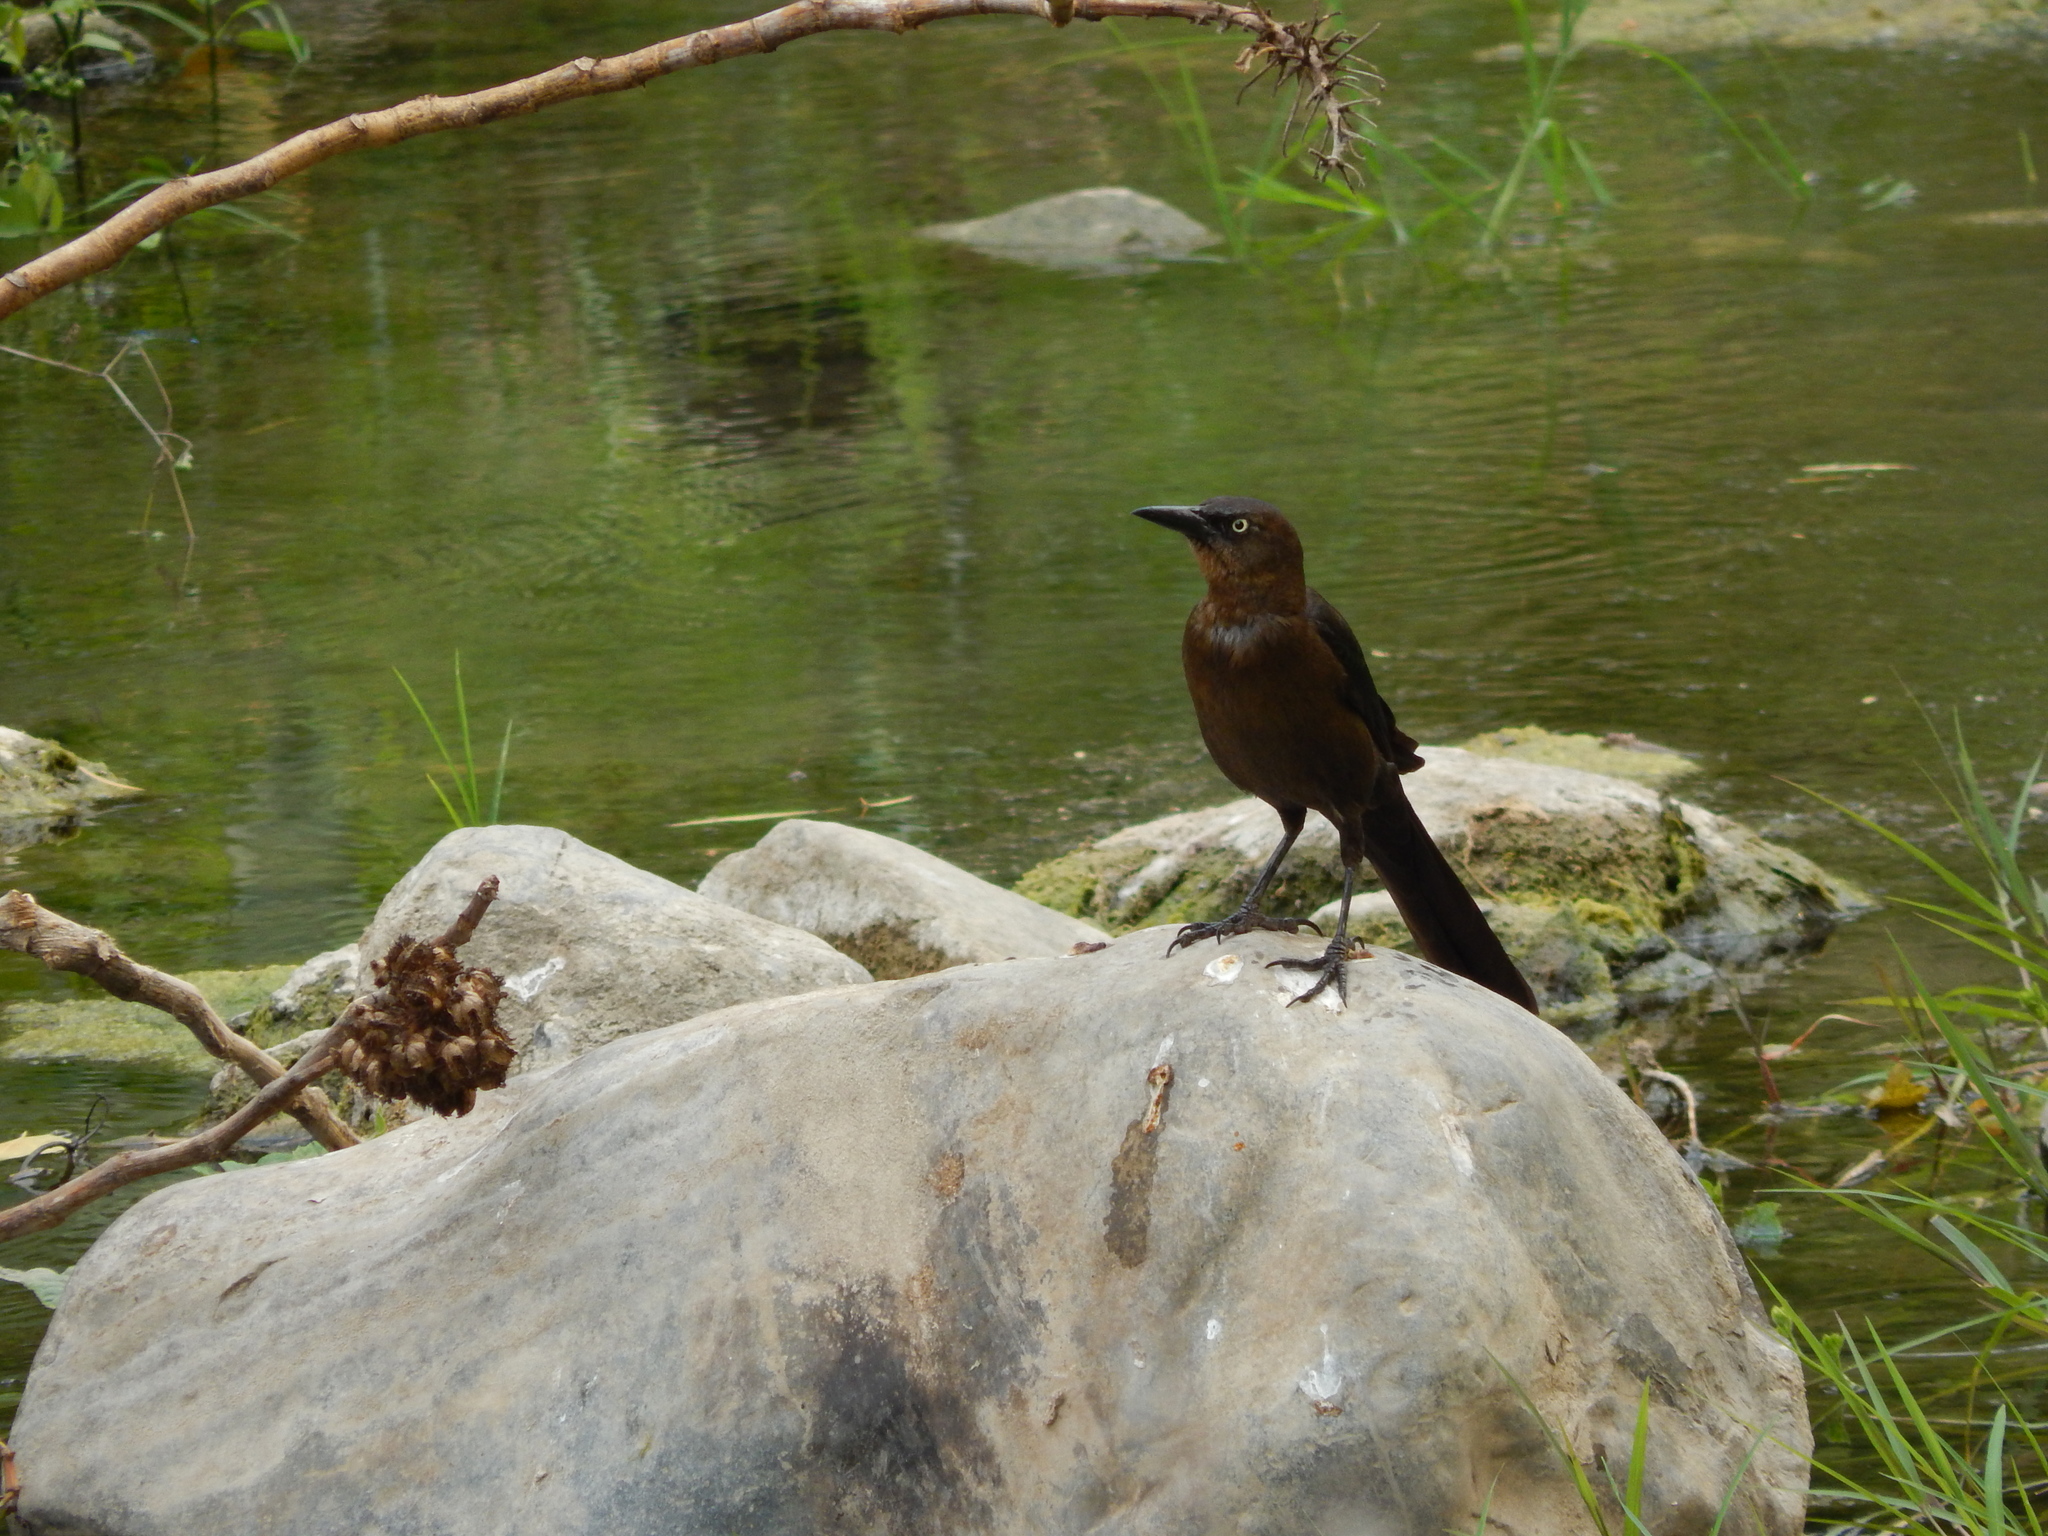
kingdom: Animalia
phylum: Chordata
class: Aves
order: Passeriformes
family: Icteridae
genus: Quiscalus
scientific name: Quiscalus mexicanus
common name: Great-tailed grackle
